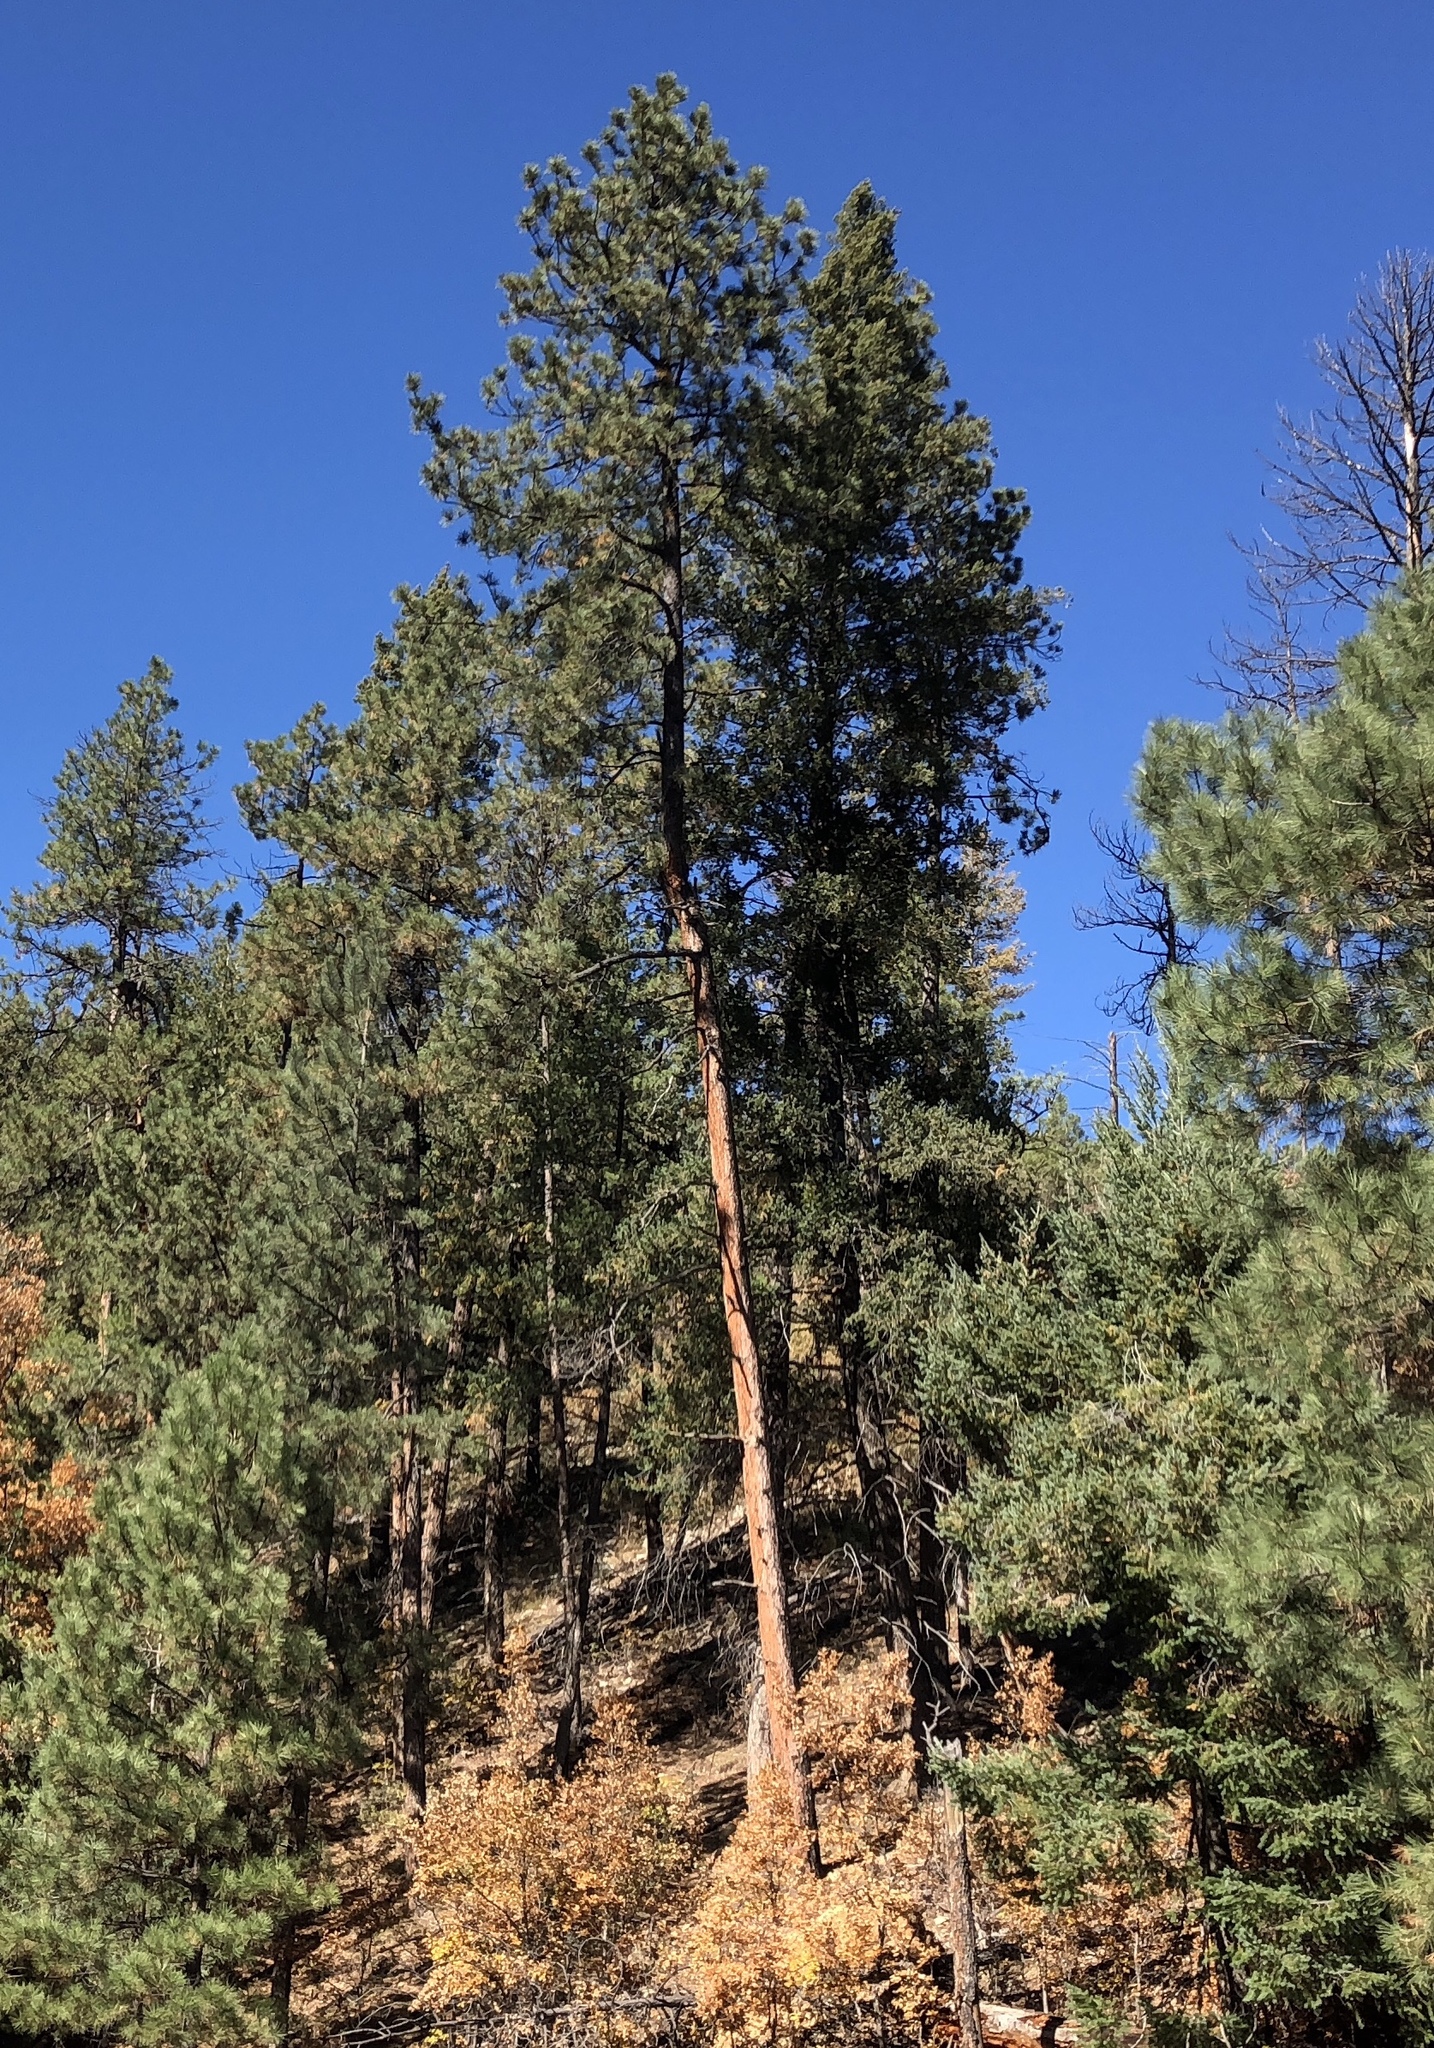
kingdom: Plantae
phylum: Tracheophyta
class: Pinopsida
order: Pinales
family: Pinaceae
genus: Pinus
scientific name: Pinus ponderosa
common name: Western yellow-pine
